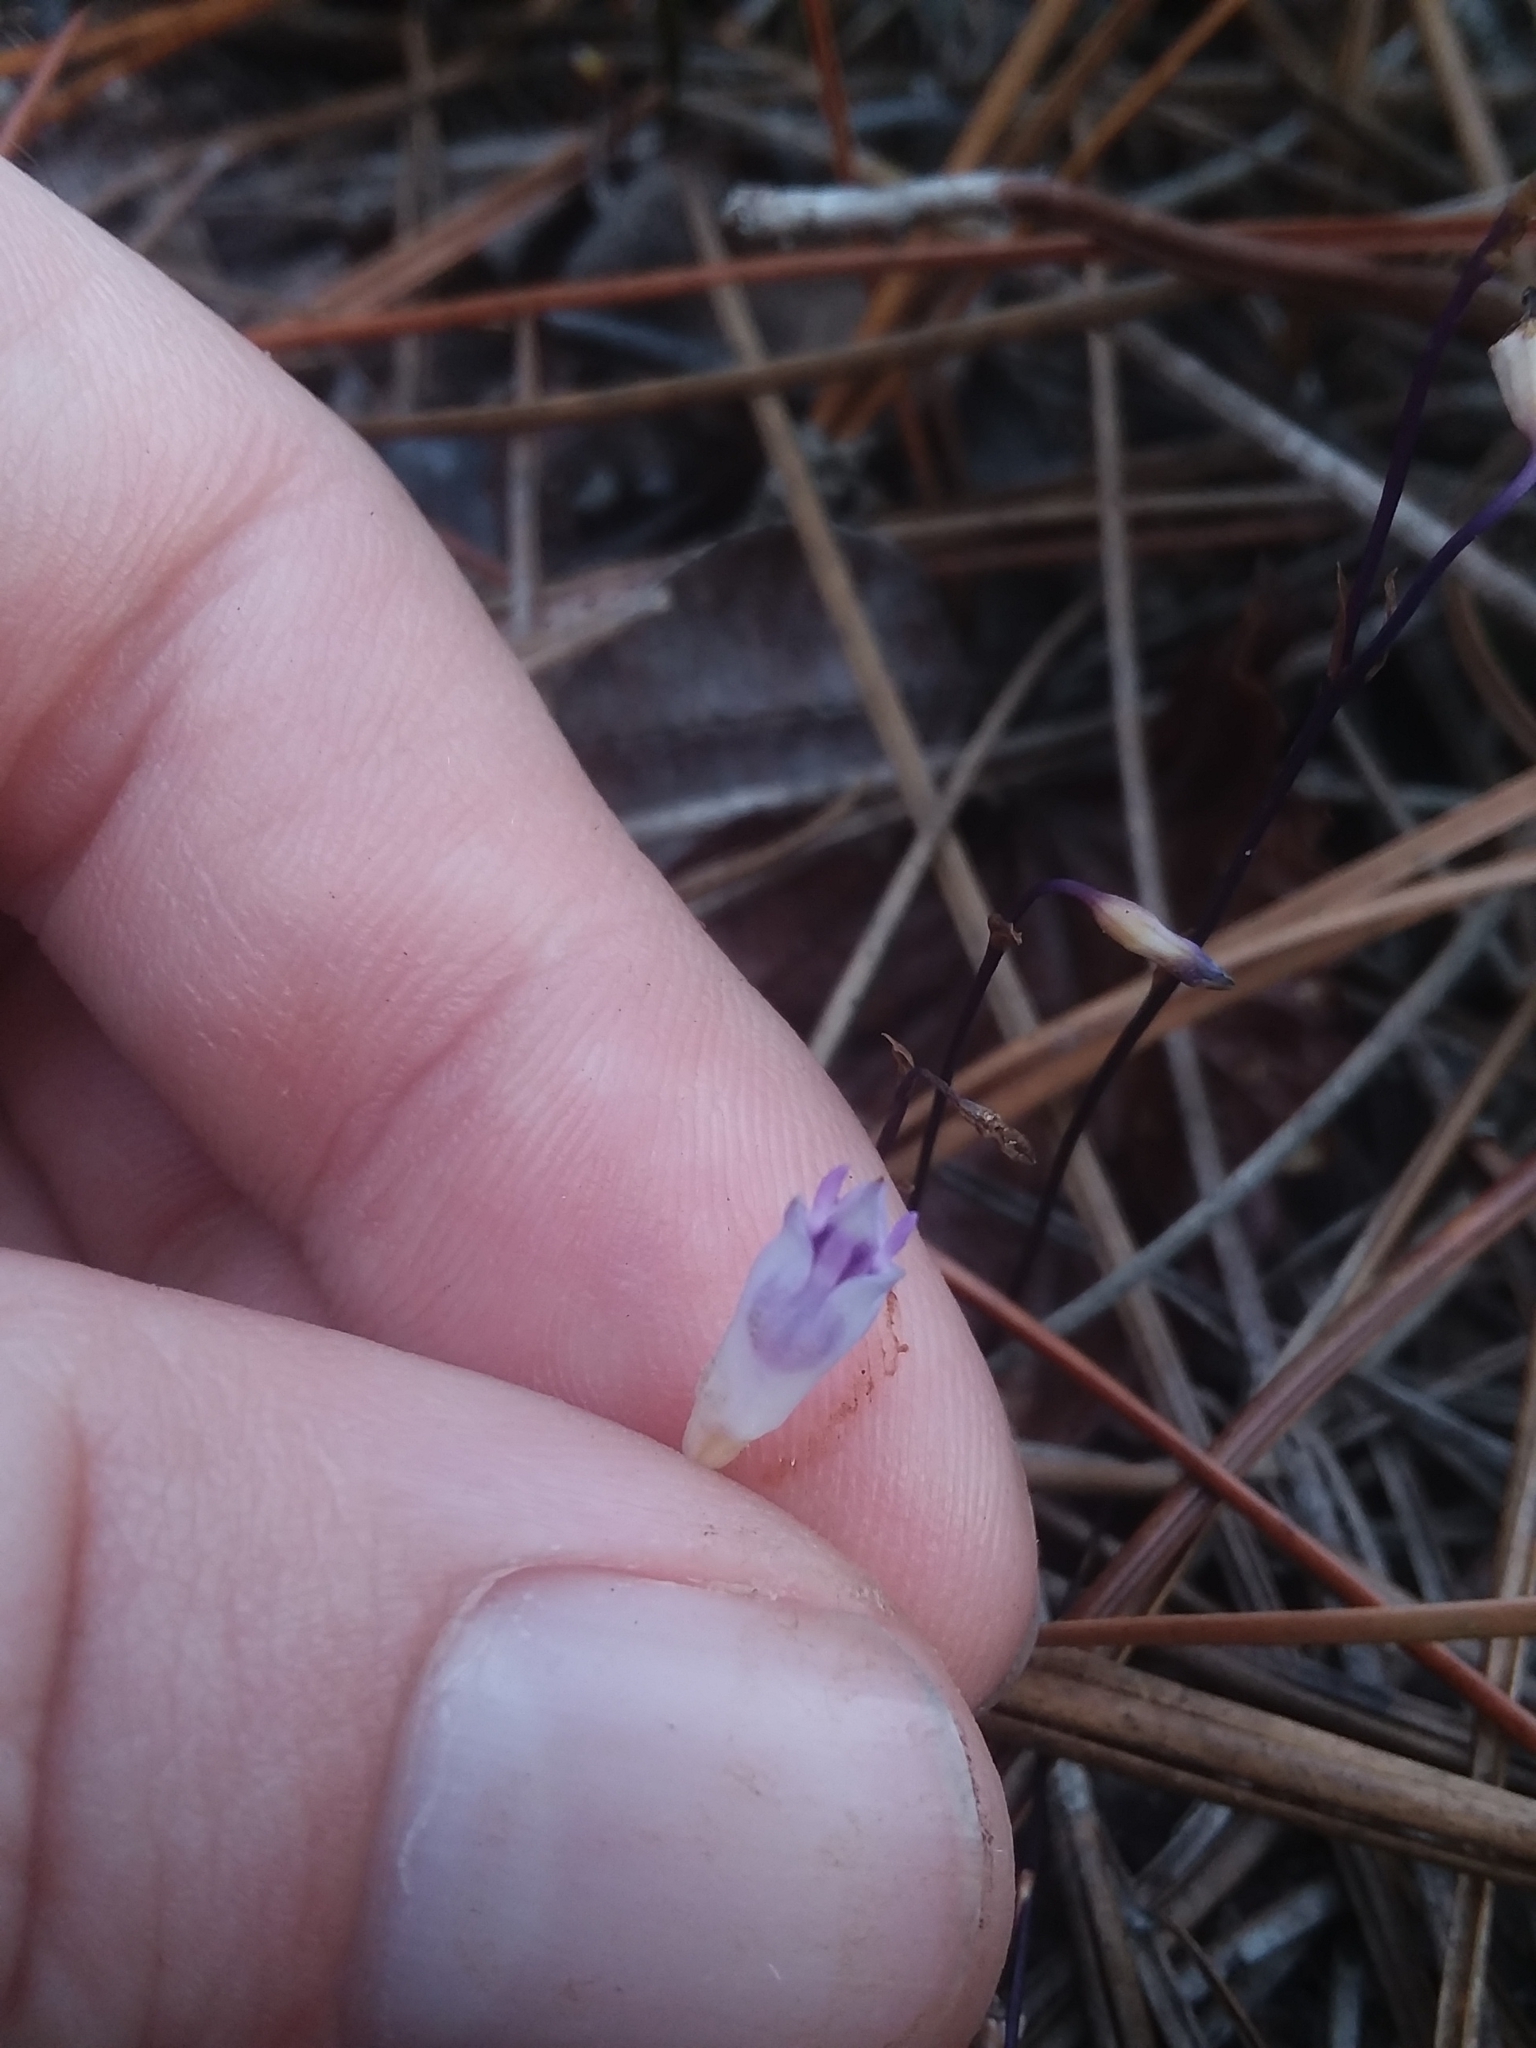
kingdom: Plantae
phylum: Tracheophyta
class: Liliopsida
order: Dioscoreales
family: Burmanniaceae
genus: Apteria
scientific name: Apteria aphylla
